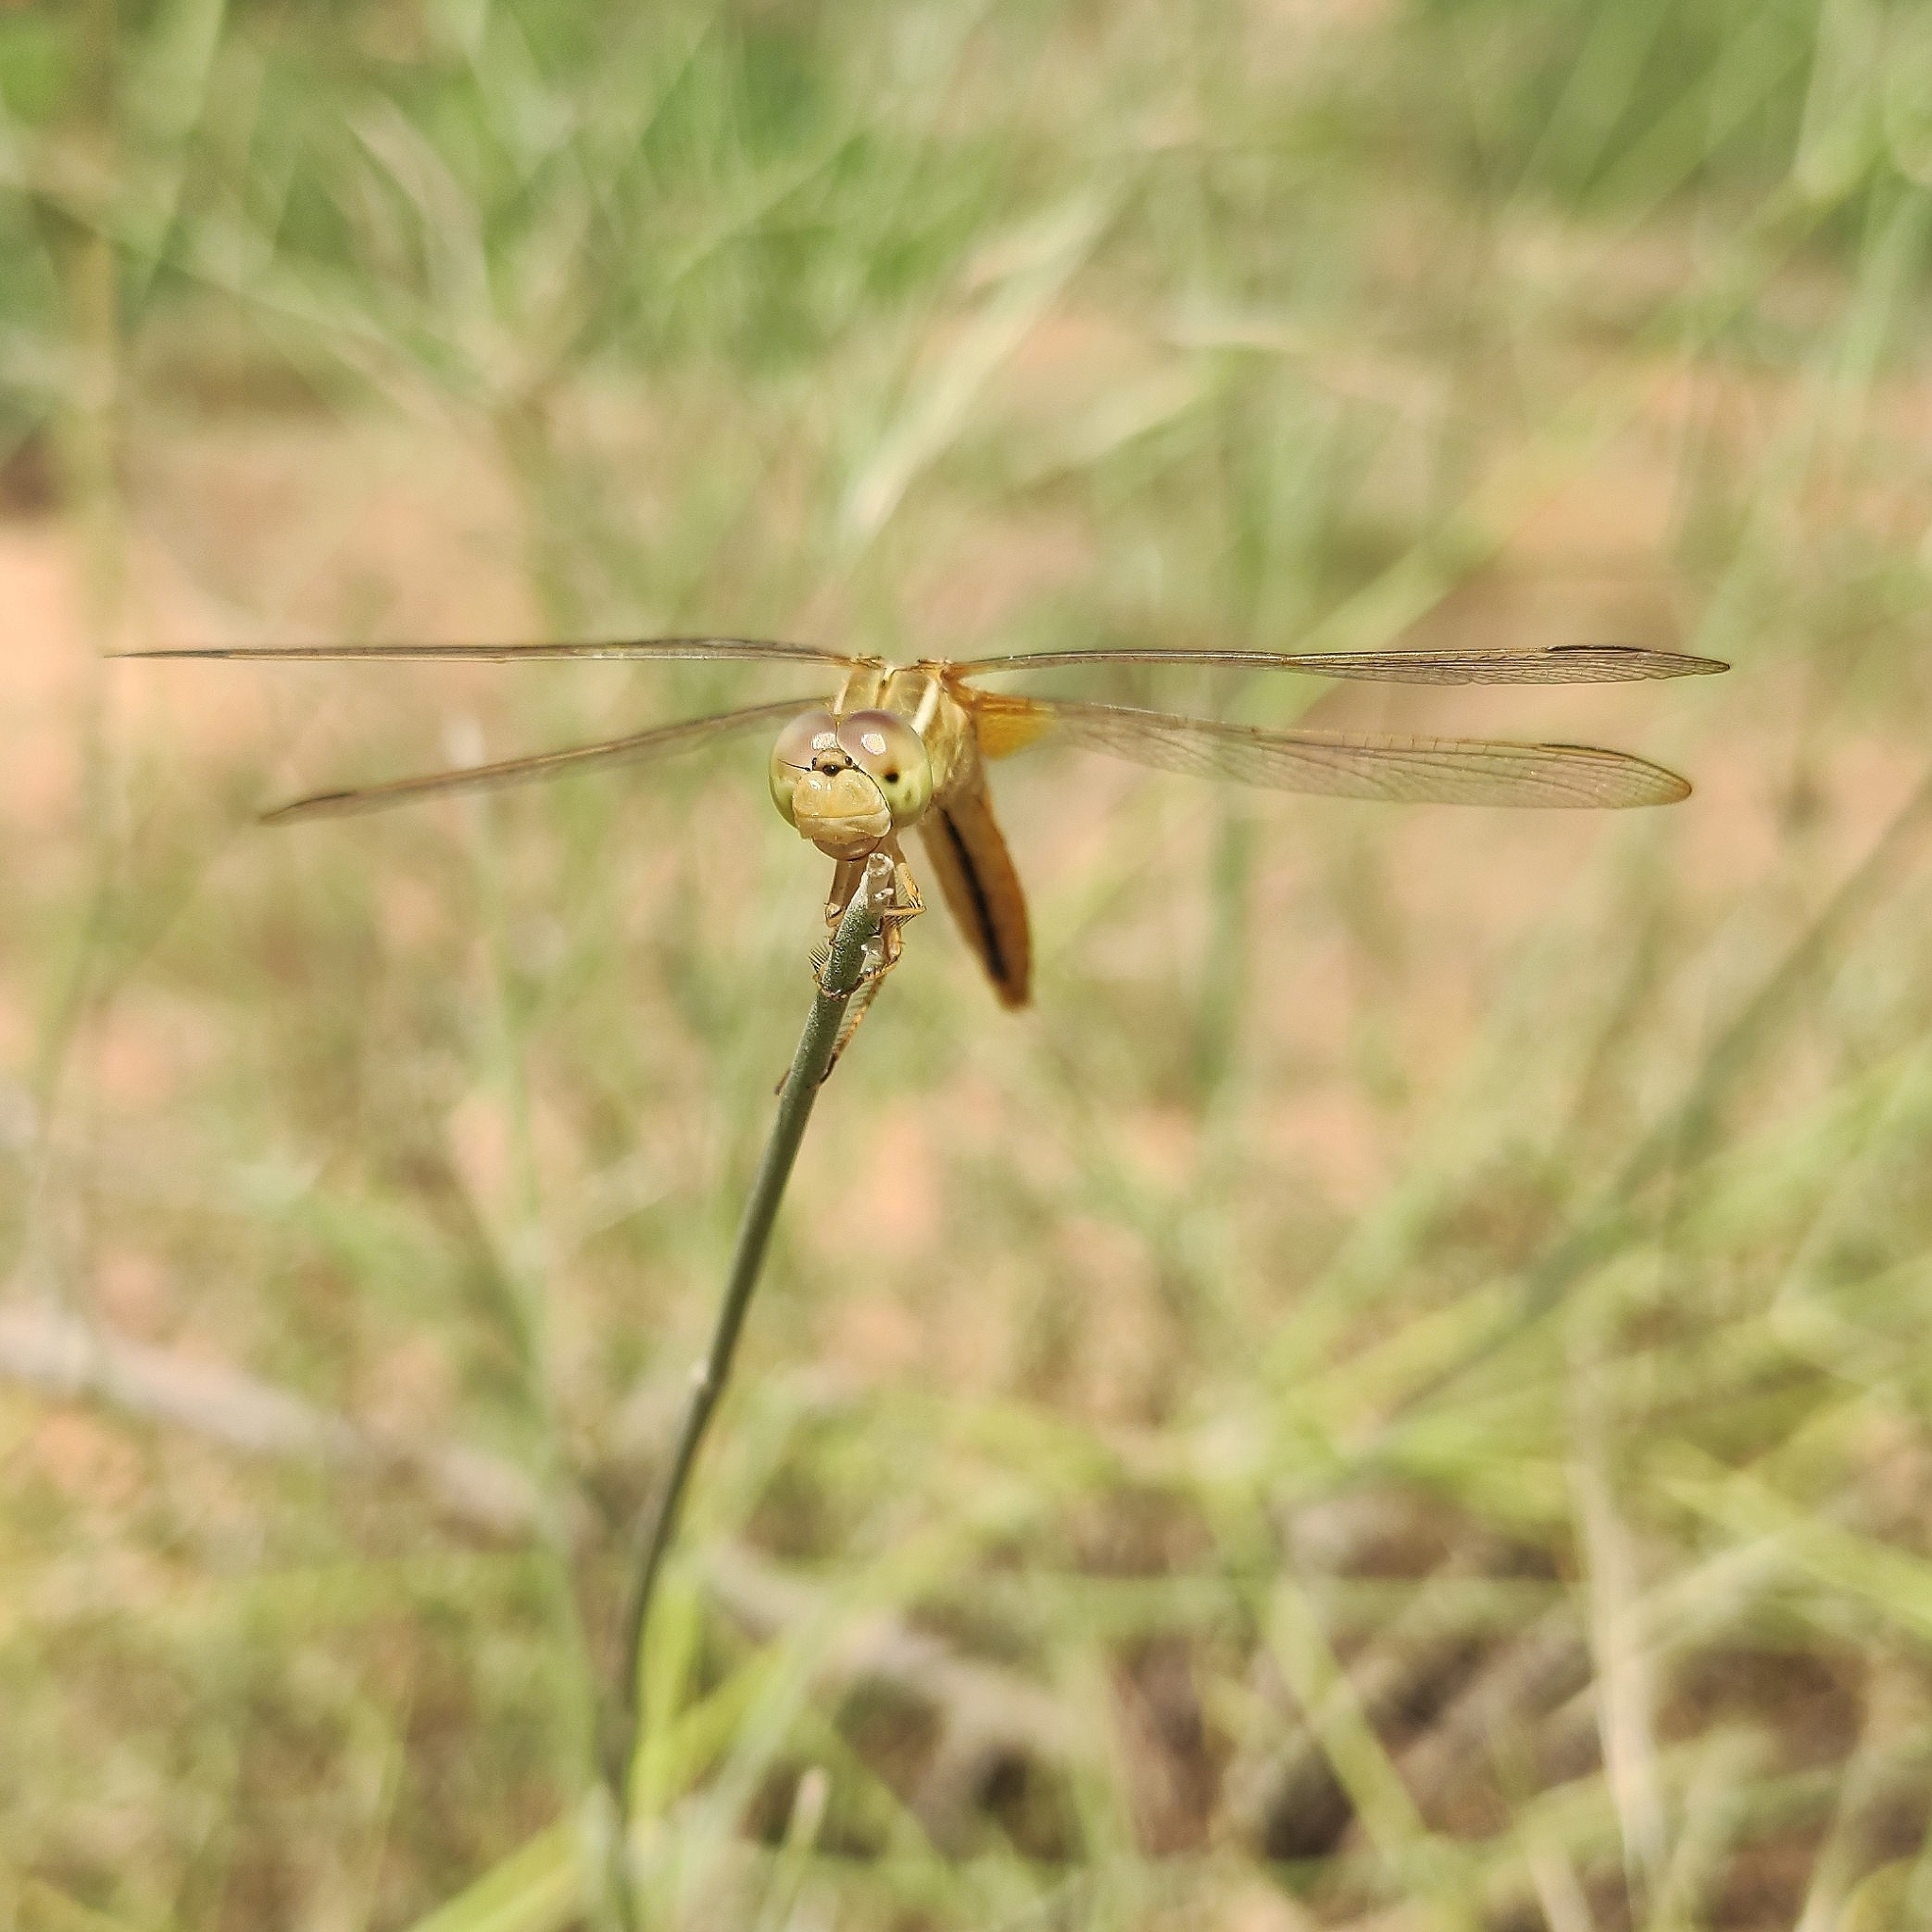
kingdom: Animalia
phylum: Arthropoda
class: Insecta
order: Odonata
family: Libellulidae
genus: Crocothemis
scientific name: Crocothemis servilia
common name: Scarlet skimmer
